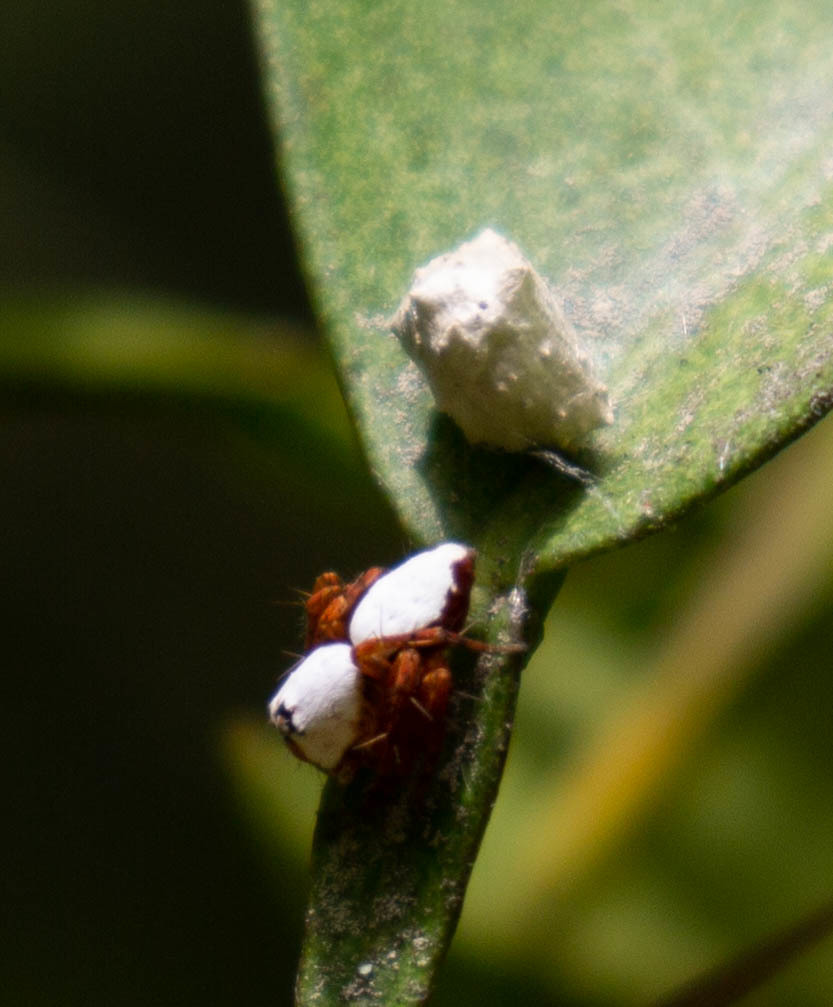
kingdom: Animalia
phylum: Arthropoda
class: Arachnida
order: Araneae
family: Oxyopidae
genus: Hamataliwa
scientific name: Hamataliwa helia
